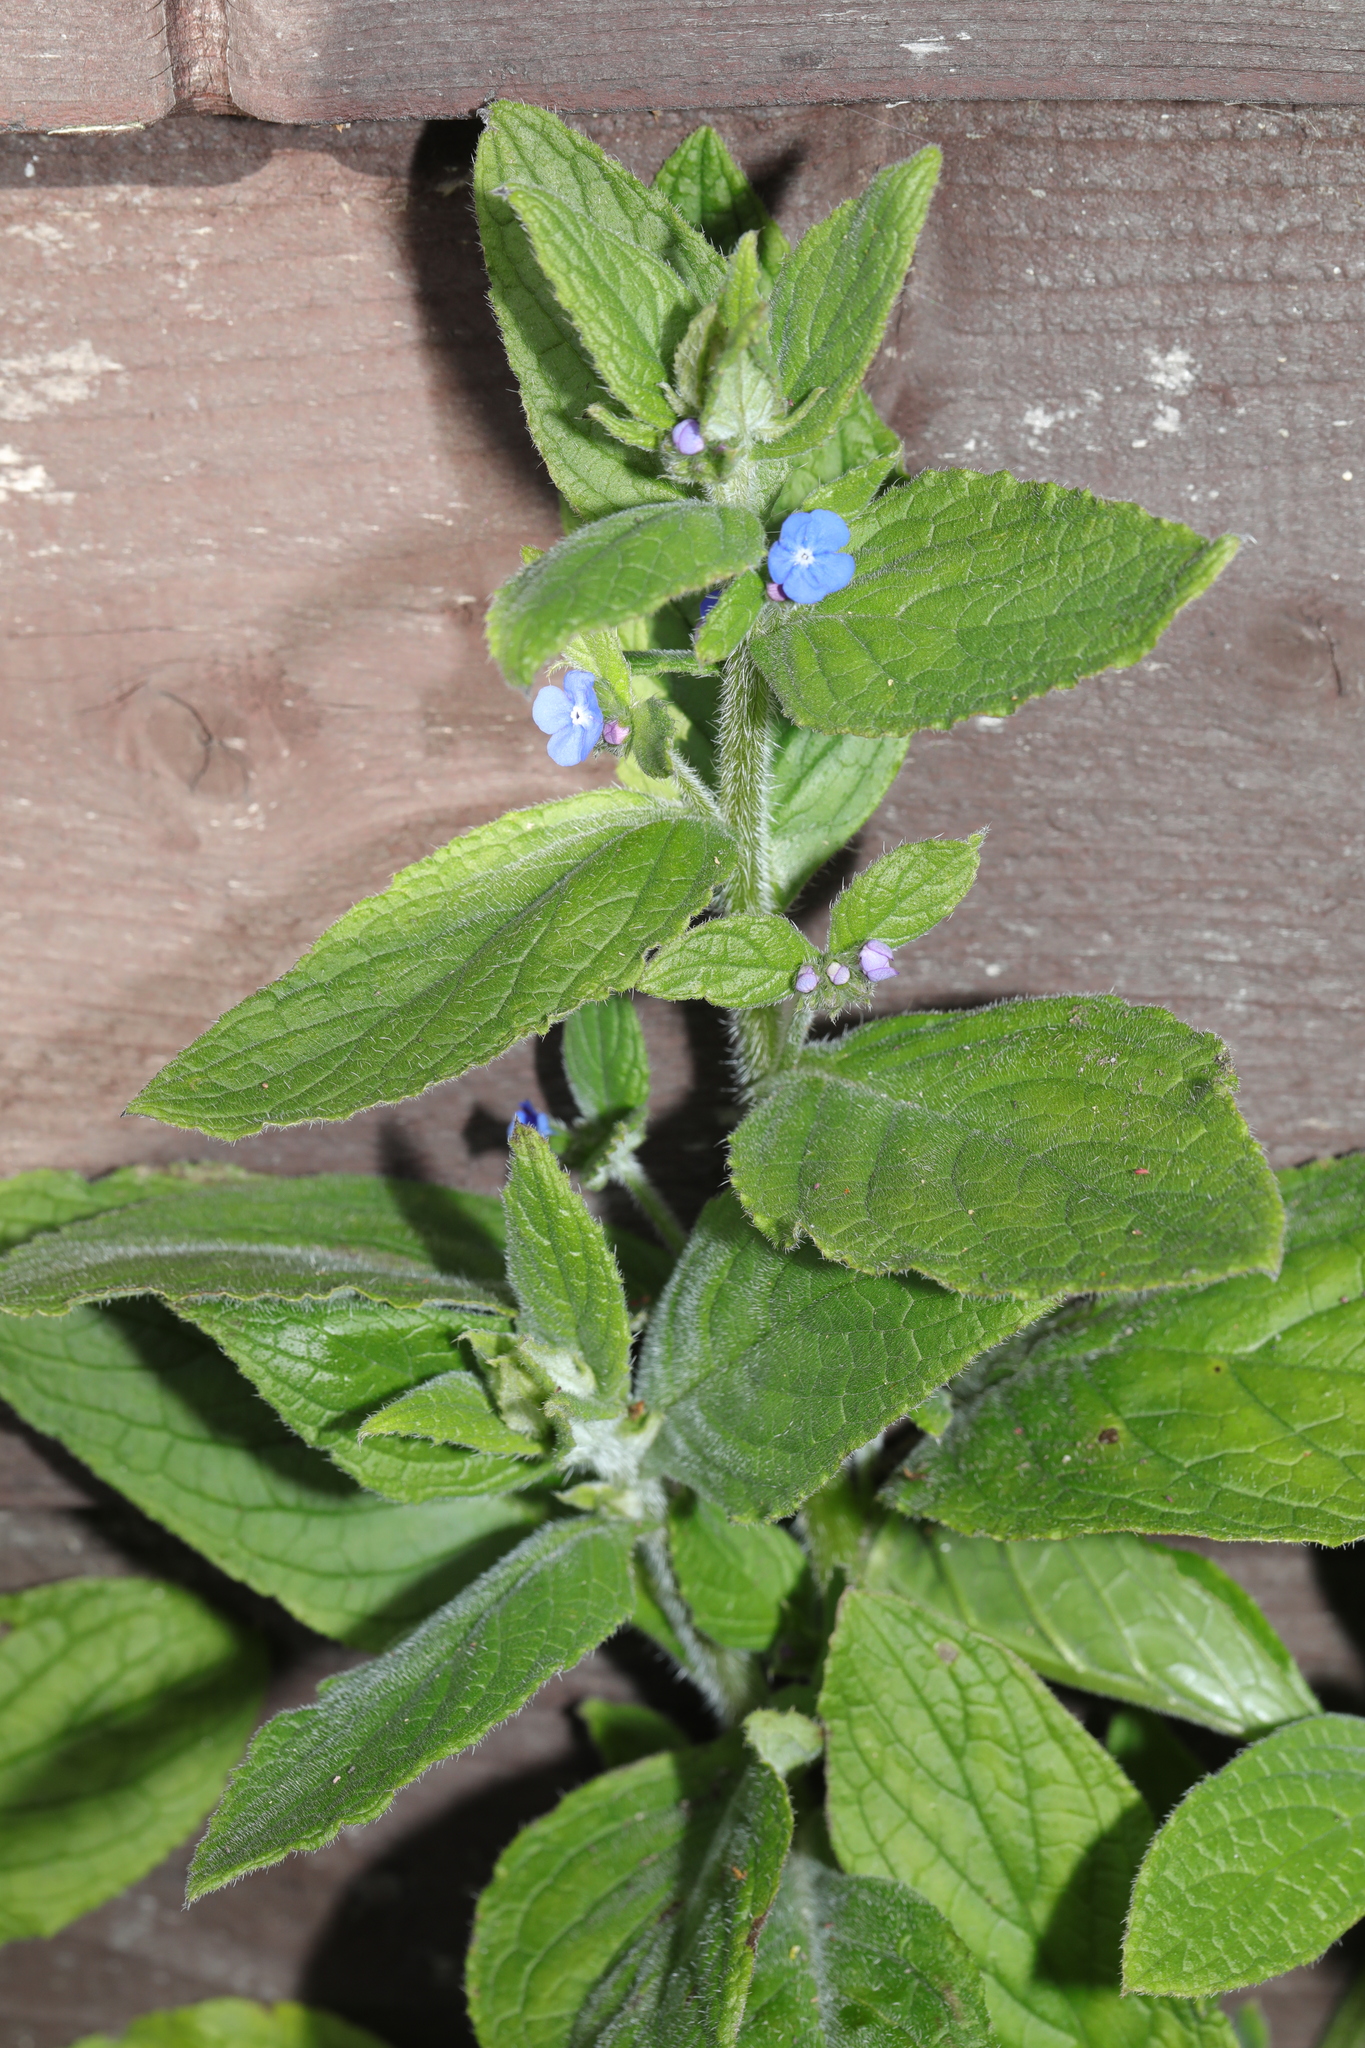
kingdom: Plantae
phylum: Tracheophyta
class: Magnoliopsida
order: Boraginales
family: Boraginaceae
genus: Pentaglottis
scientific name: Pentaglottis sempervirens
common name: Green alkanet
